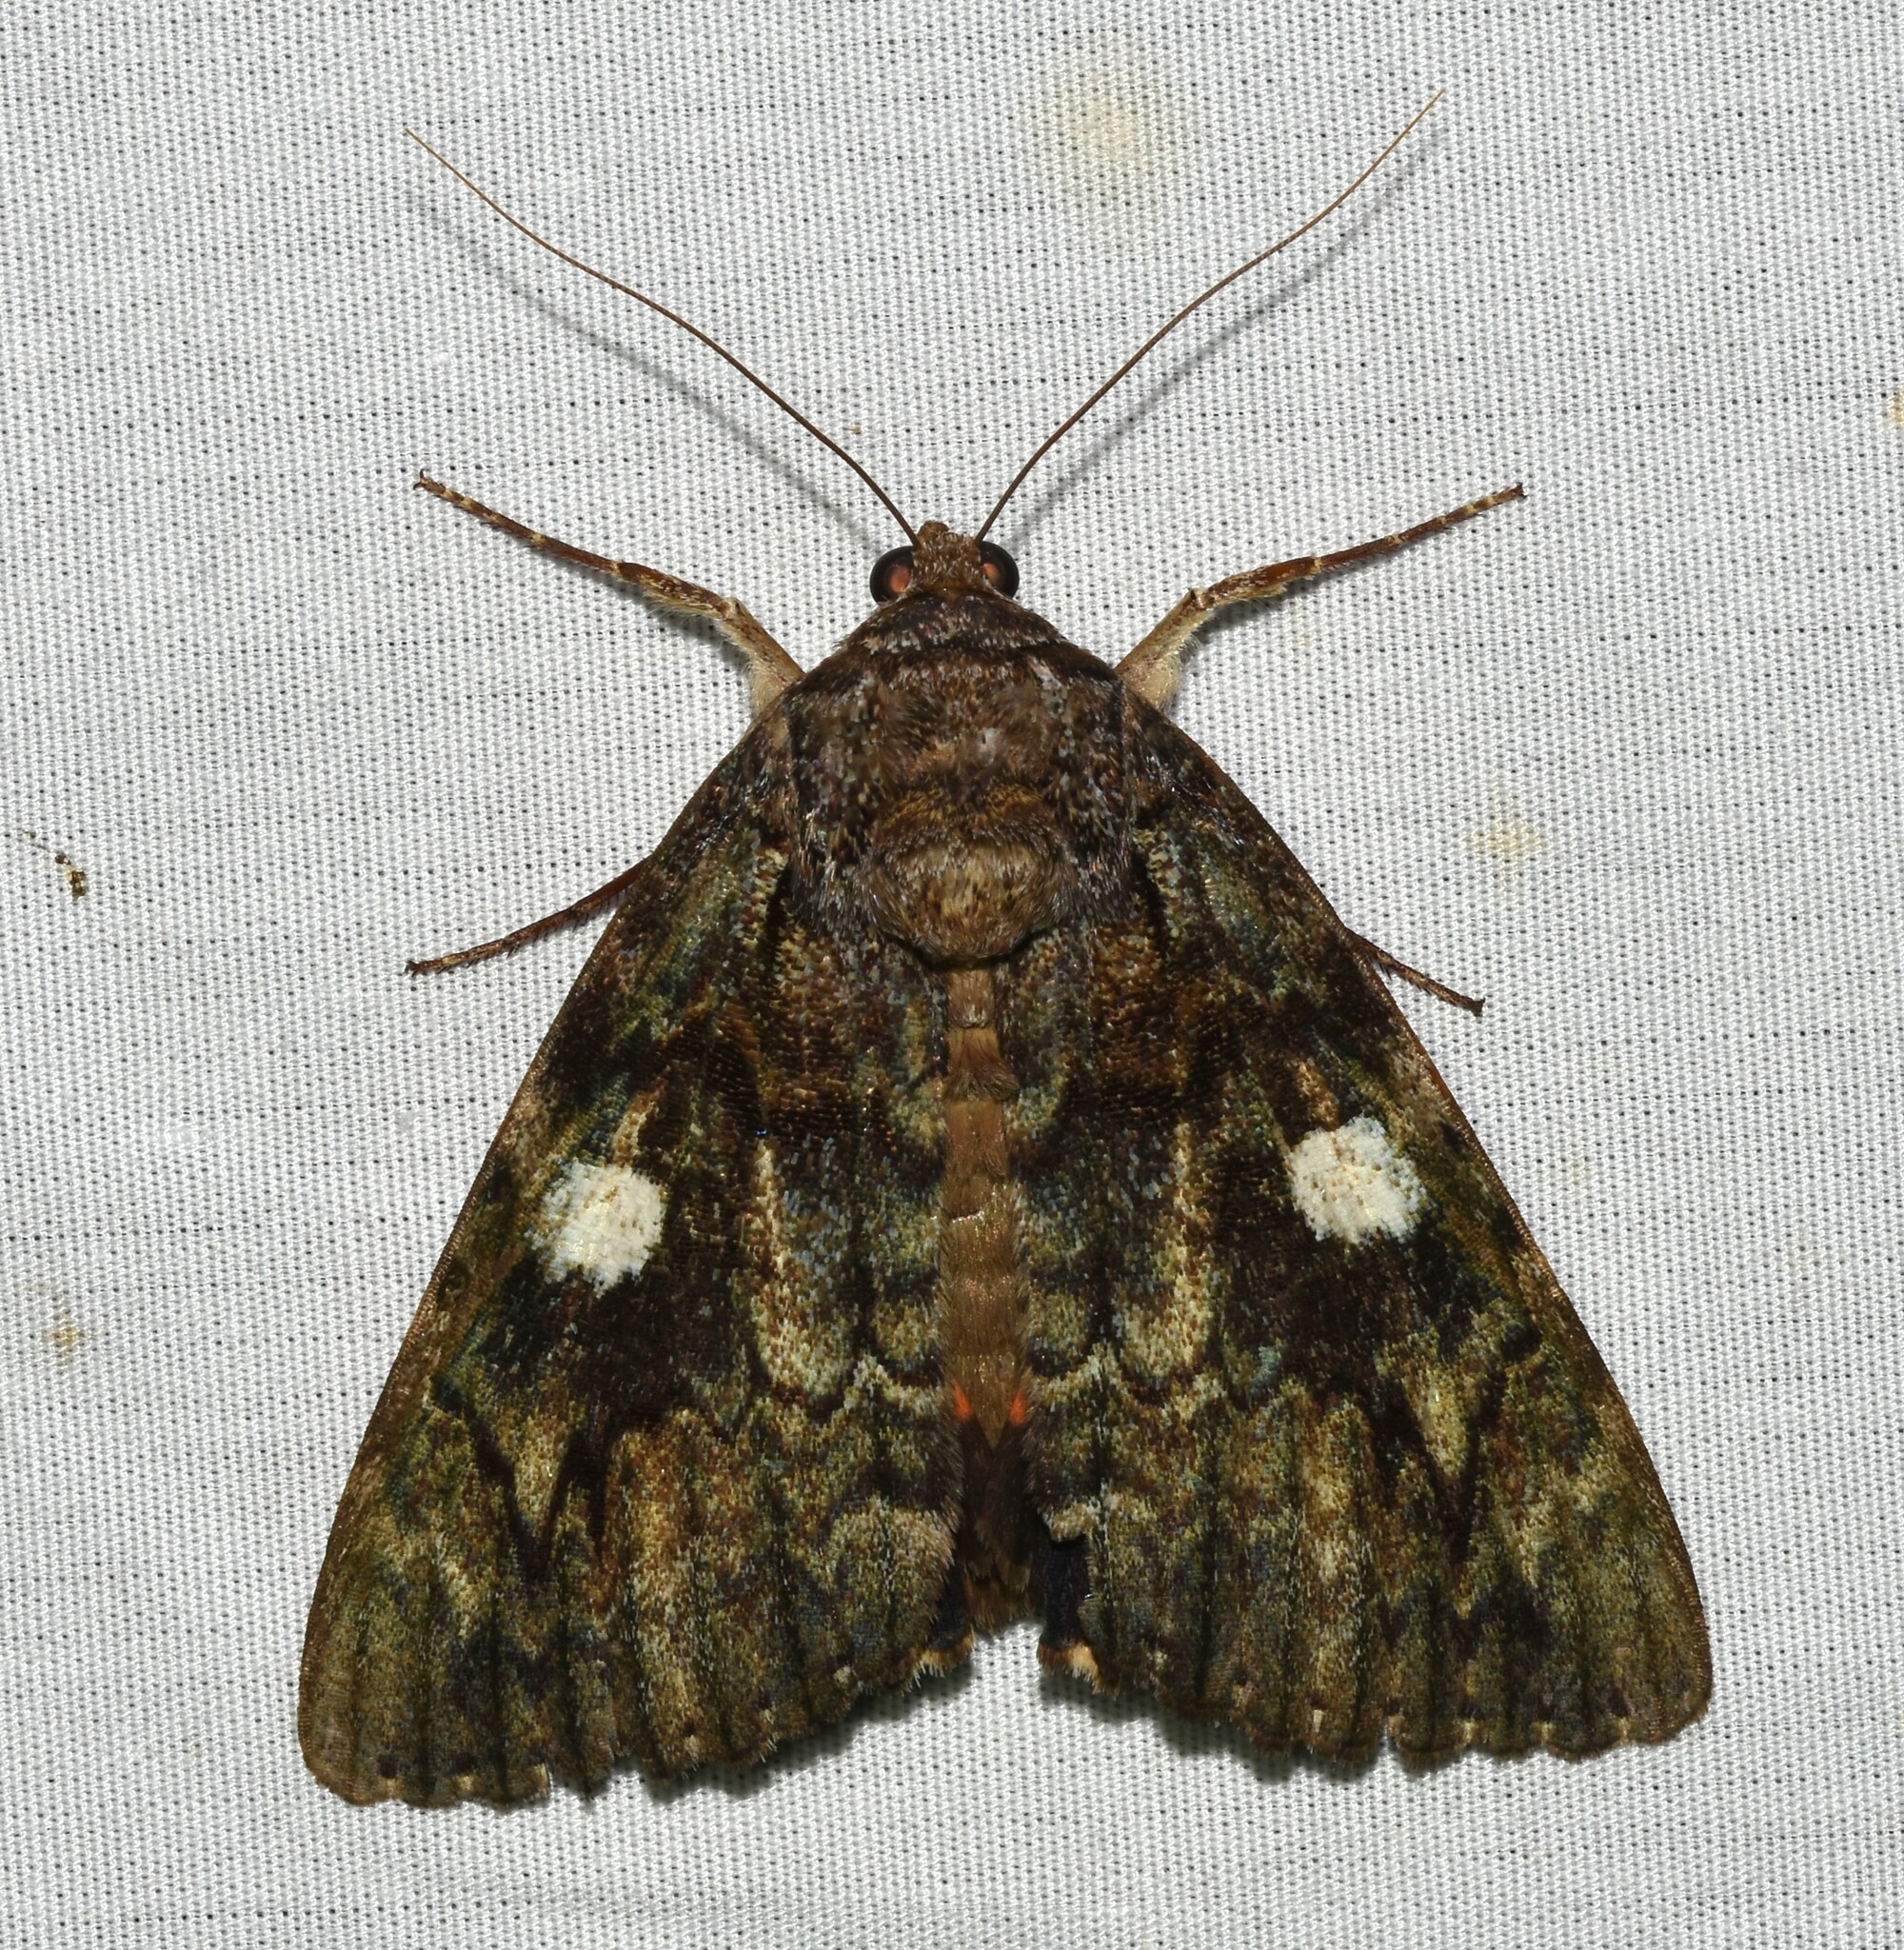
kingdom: Animalia
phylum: Arthropoda
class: Insecta
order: Lepidoptera
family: Erebidae
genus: Catocala
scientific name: Catocala ilia
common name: Ilia underwing
